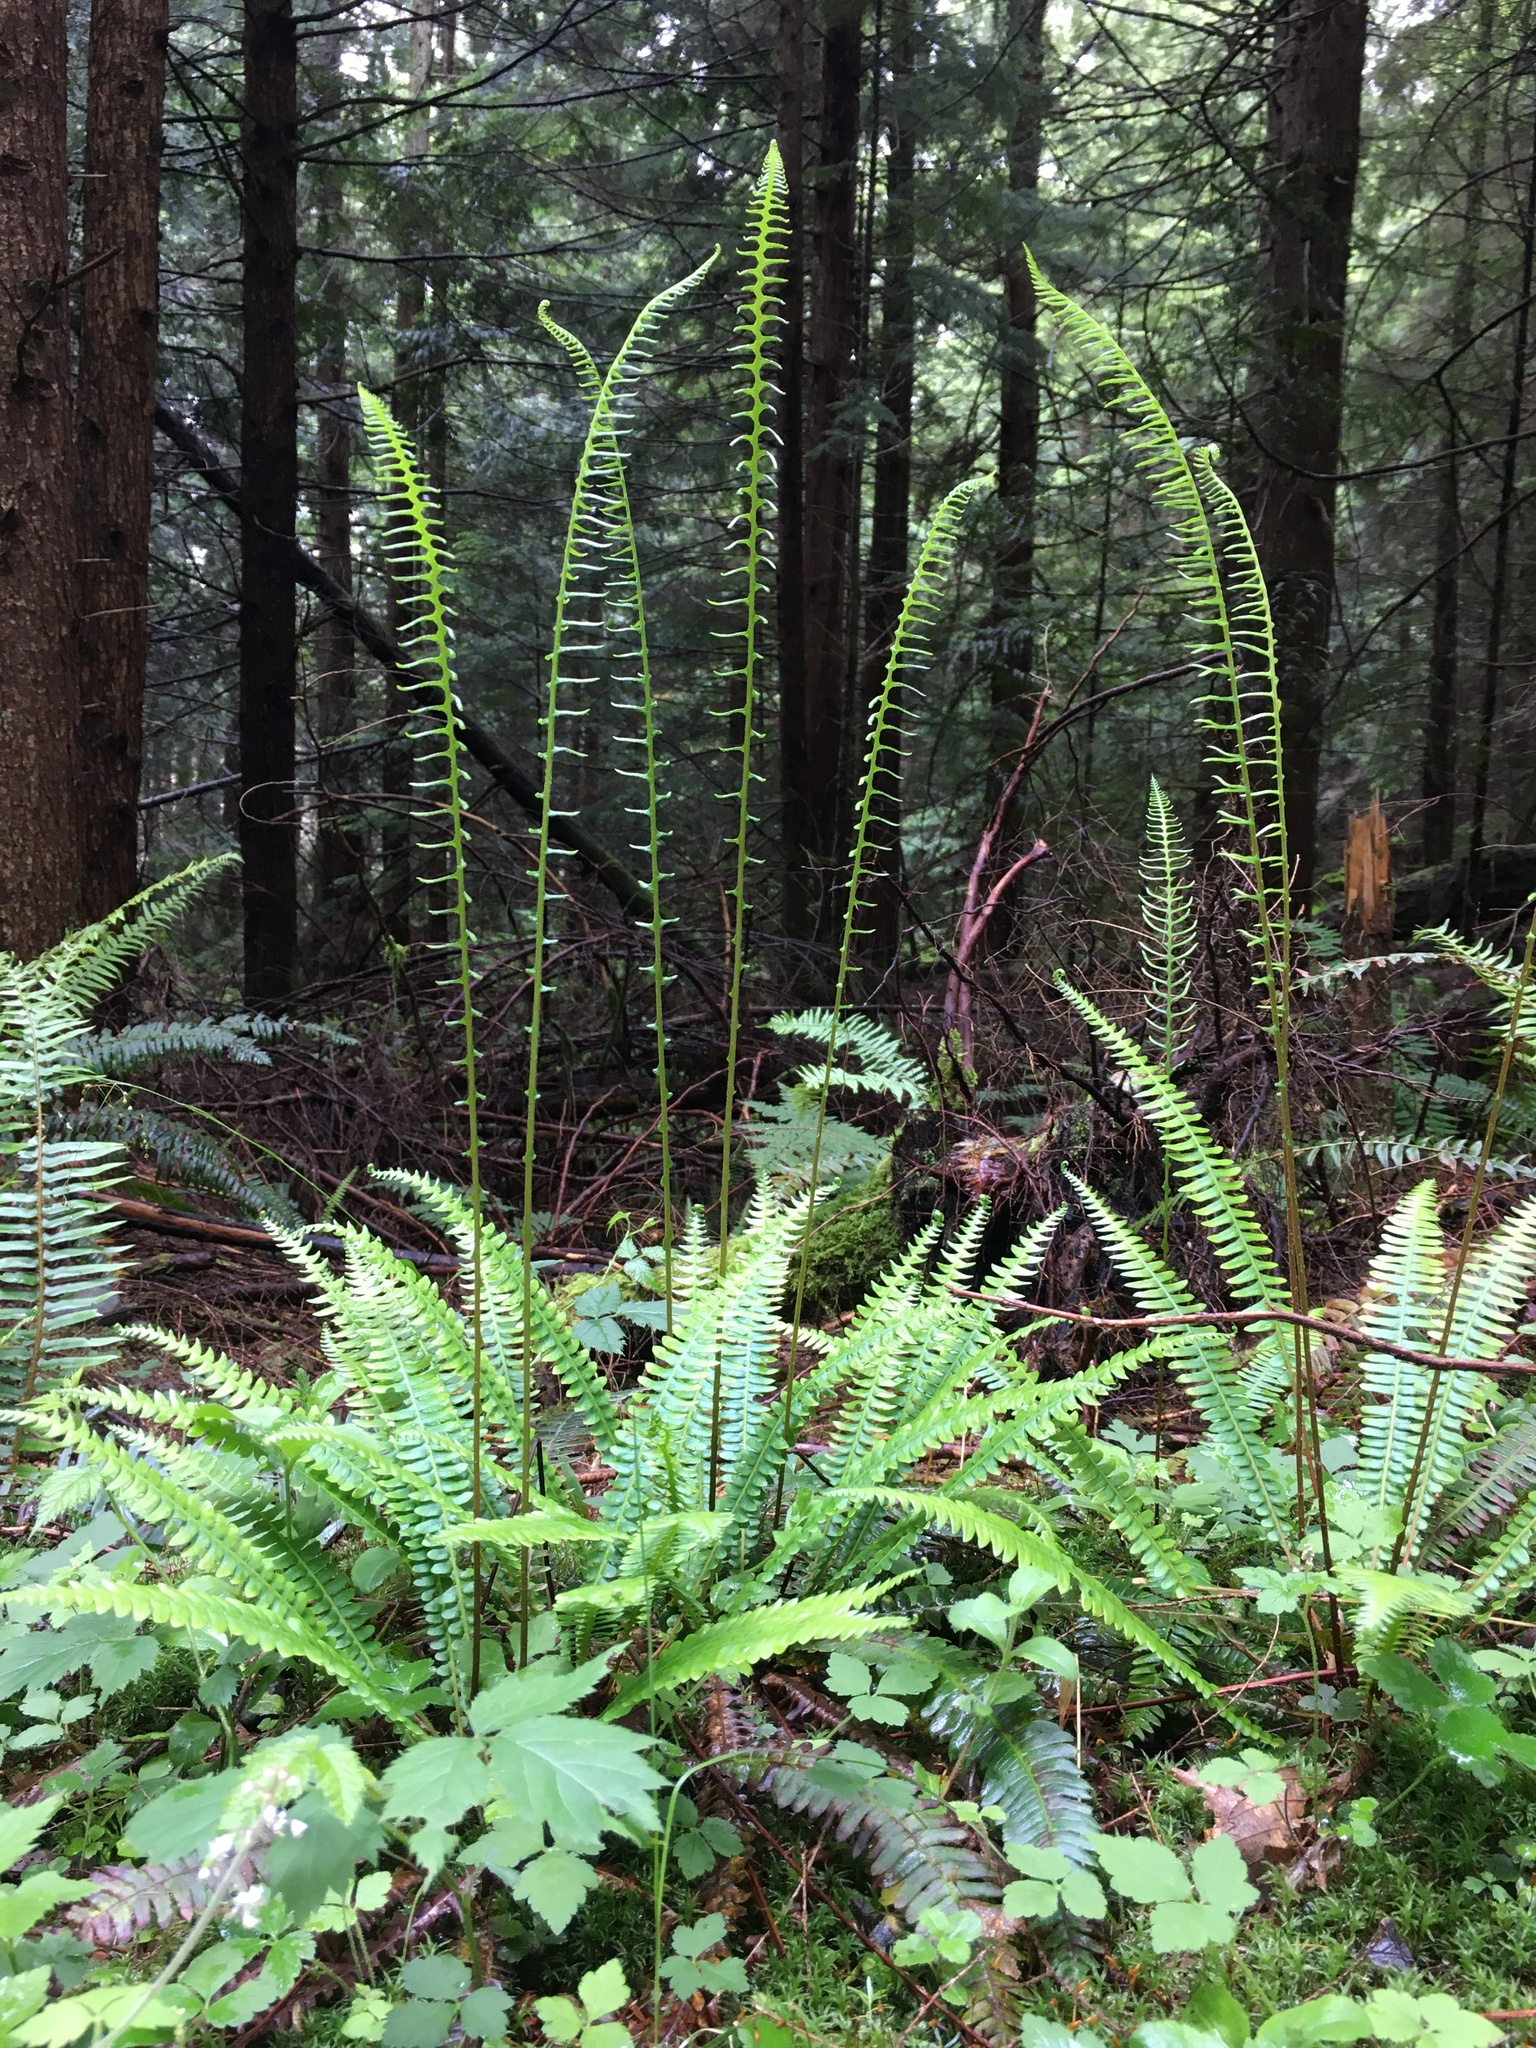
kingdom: Plantae
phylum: Tracheophyta
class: Polypodiopsida
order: Polypodiales
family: Blechnaceae
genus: Struthiopteris
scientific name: Struthiopteris spicant
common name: Deer fern
